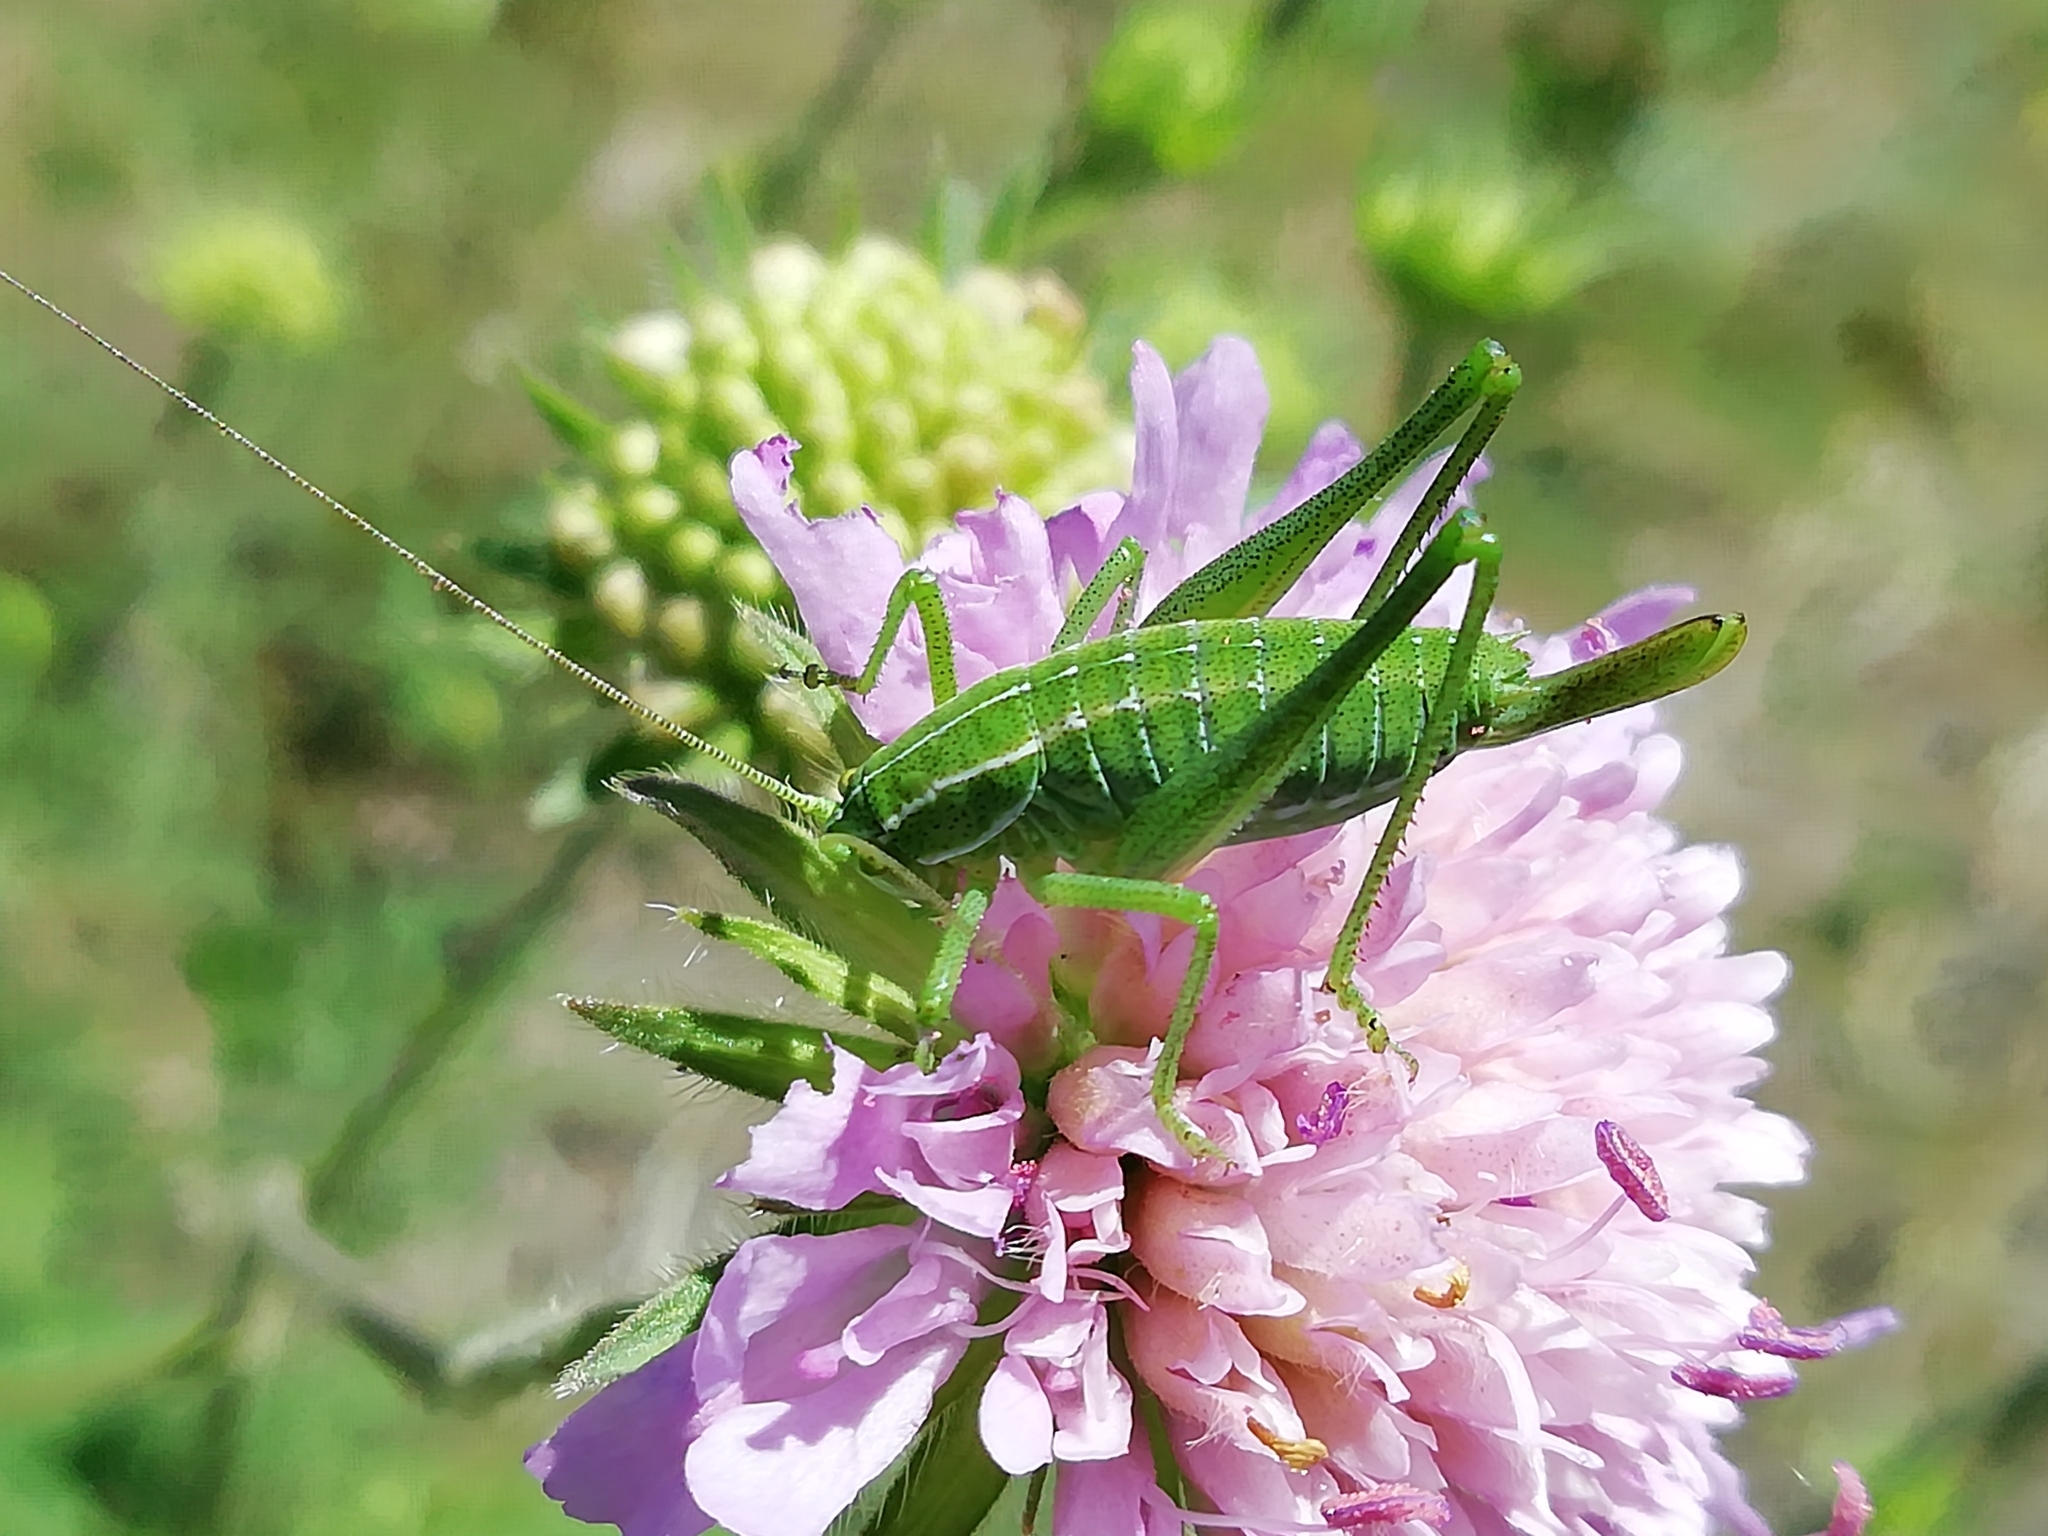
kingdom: Animalia
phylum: Arthropoda
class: Insecta
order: Orthoptera
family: Tettigoniidae
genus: Poecilimon
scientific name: Poecilimon intermedius
